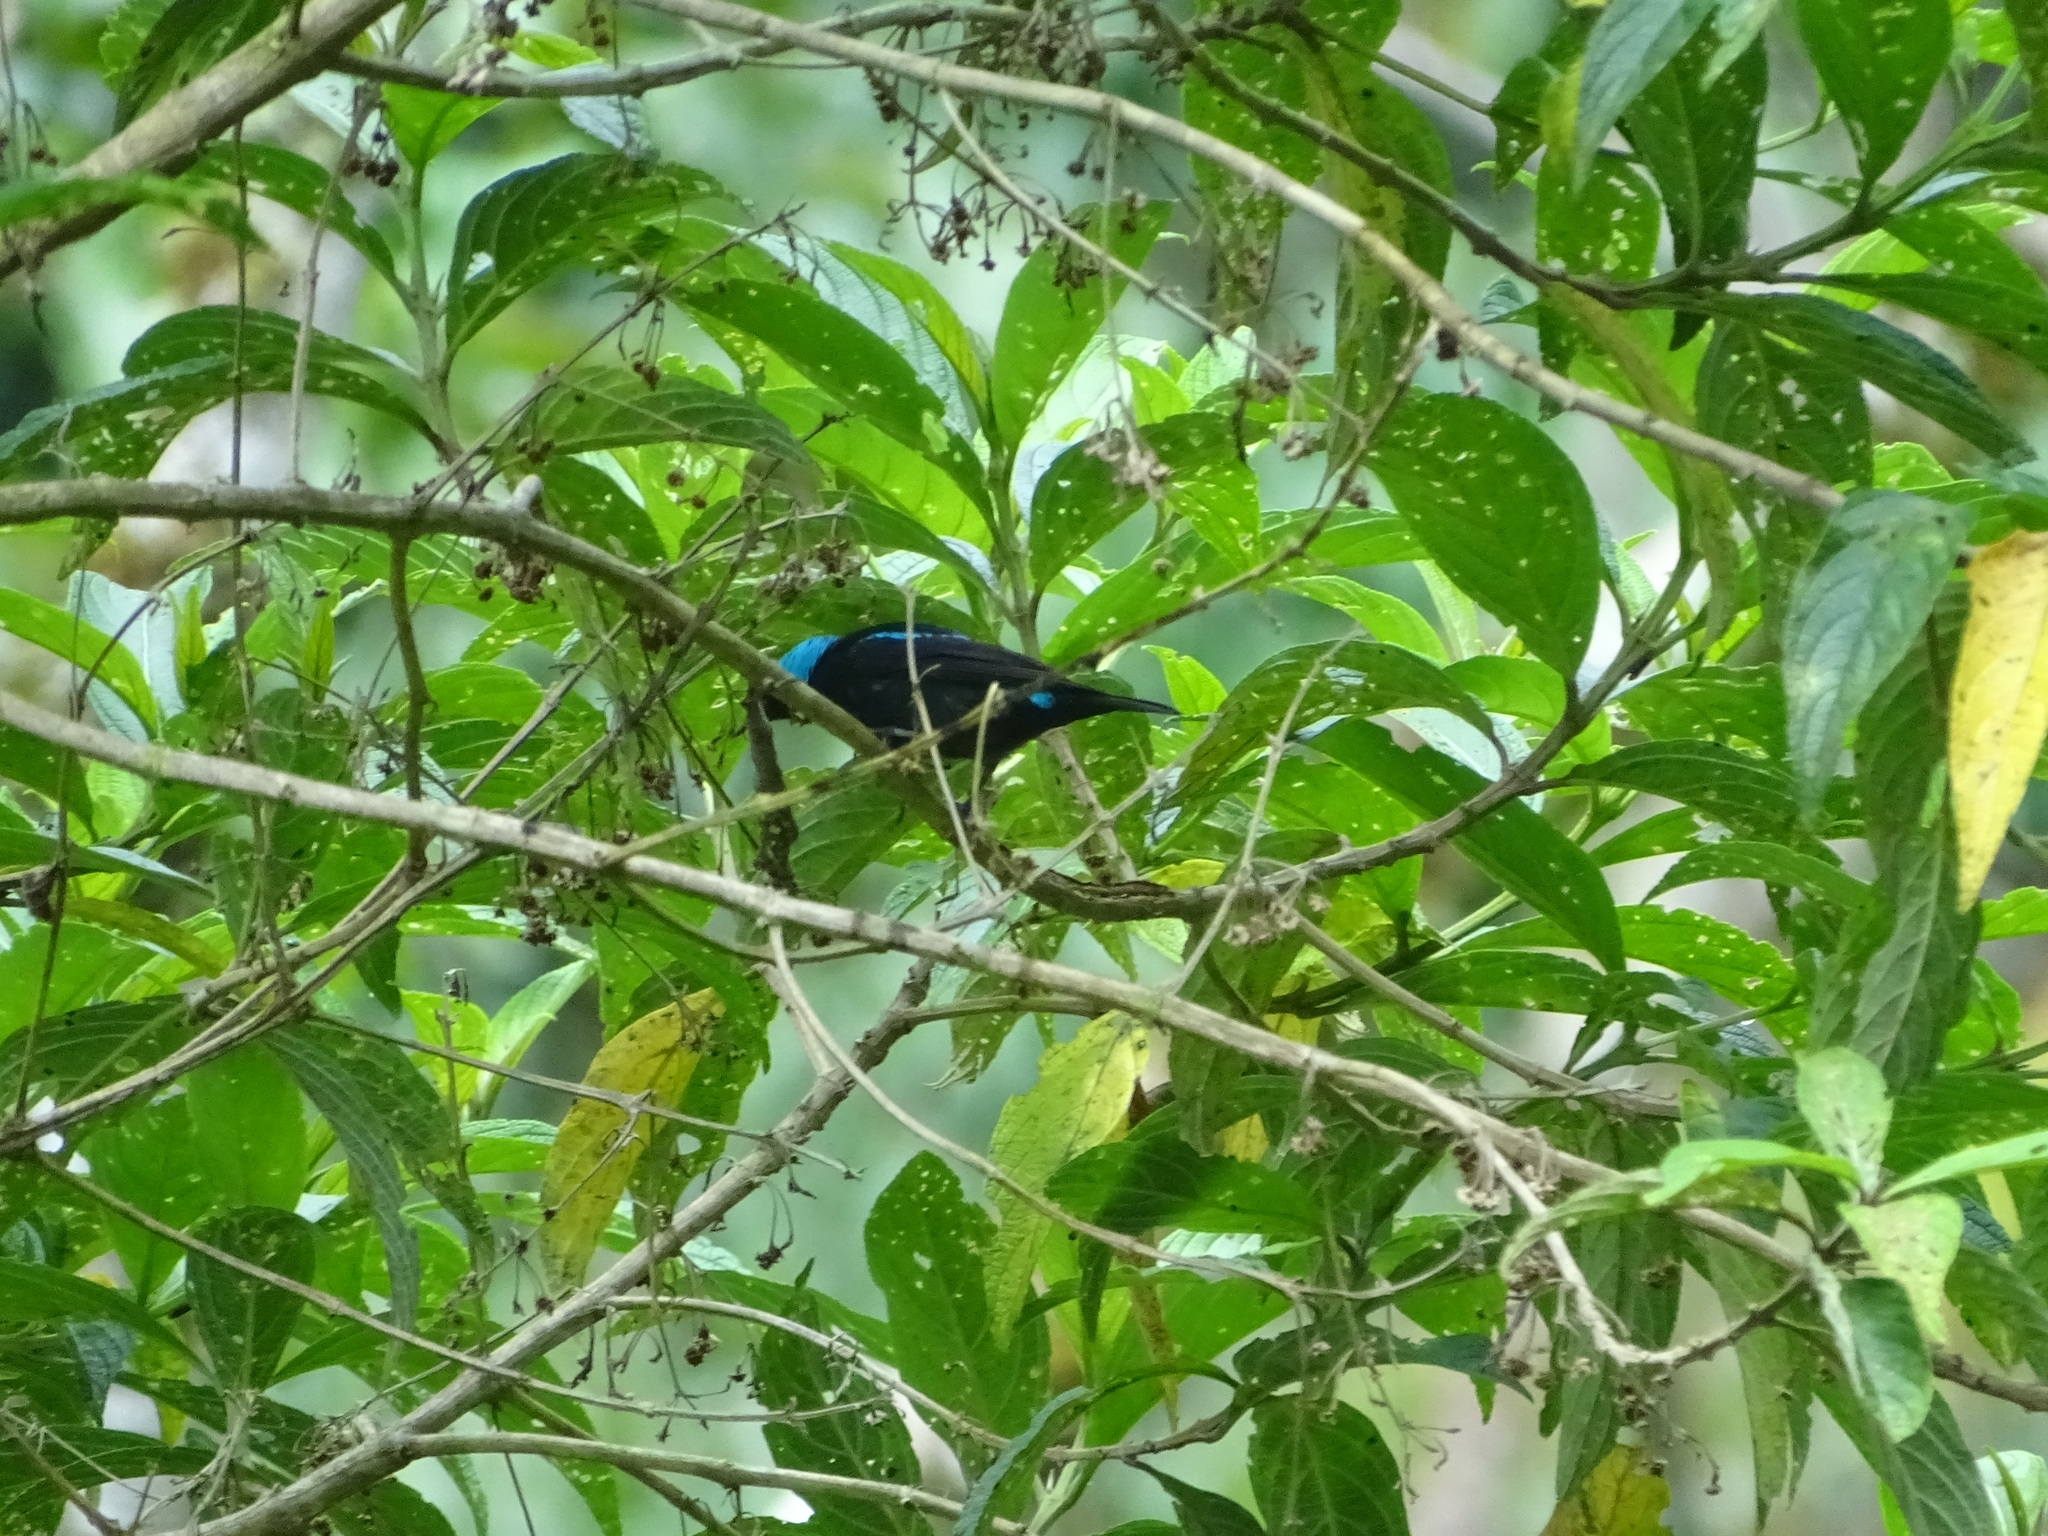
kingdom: Animalia
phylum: Chordata
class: Aves
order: Passeriformes
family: Thraupidae
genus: Dacnis
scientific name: Dacnis venusta
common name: Scarlet-thighed dacnis
